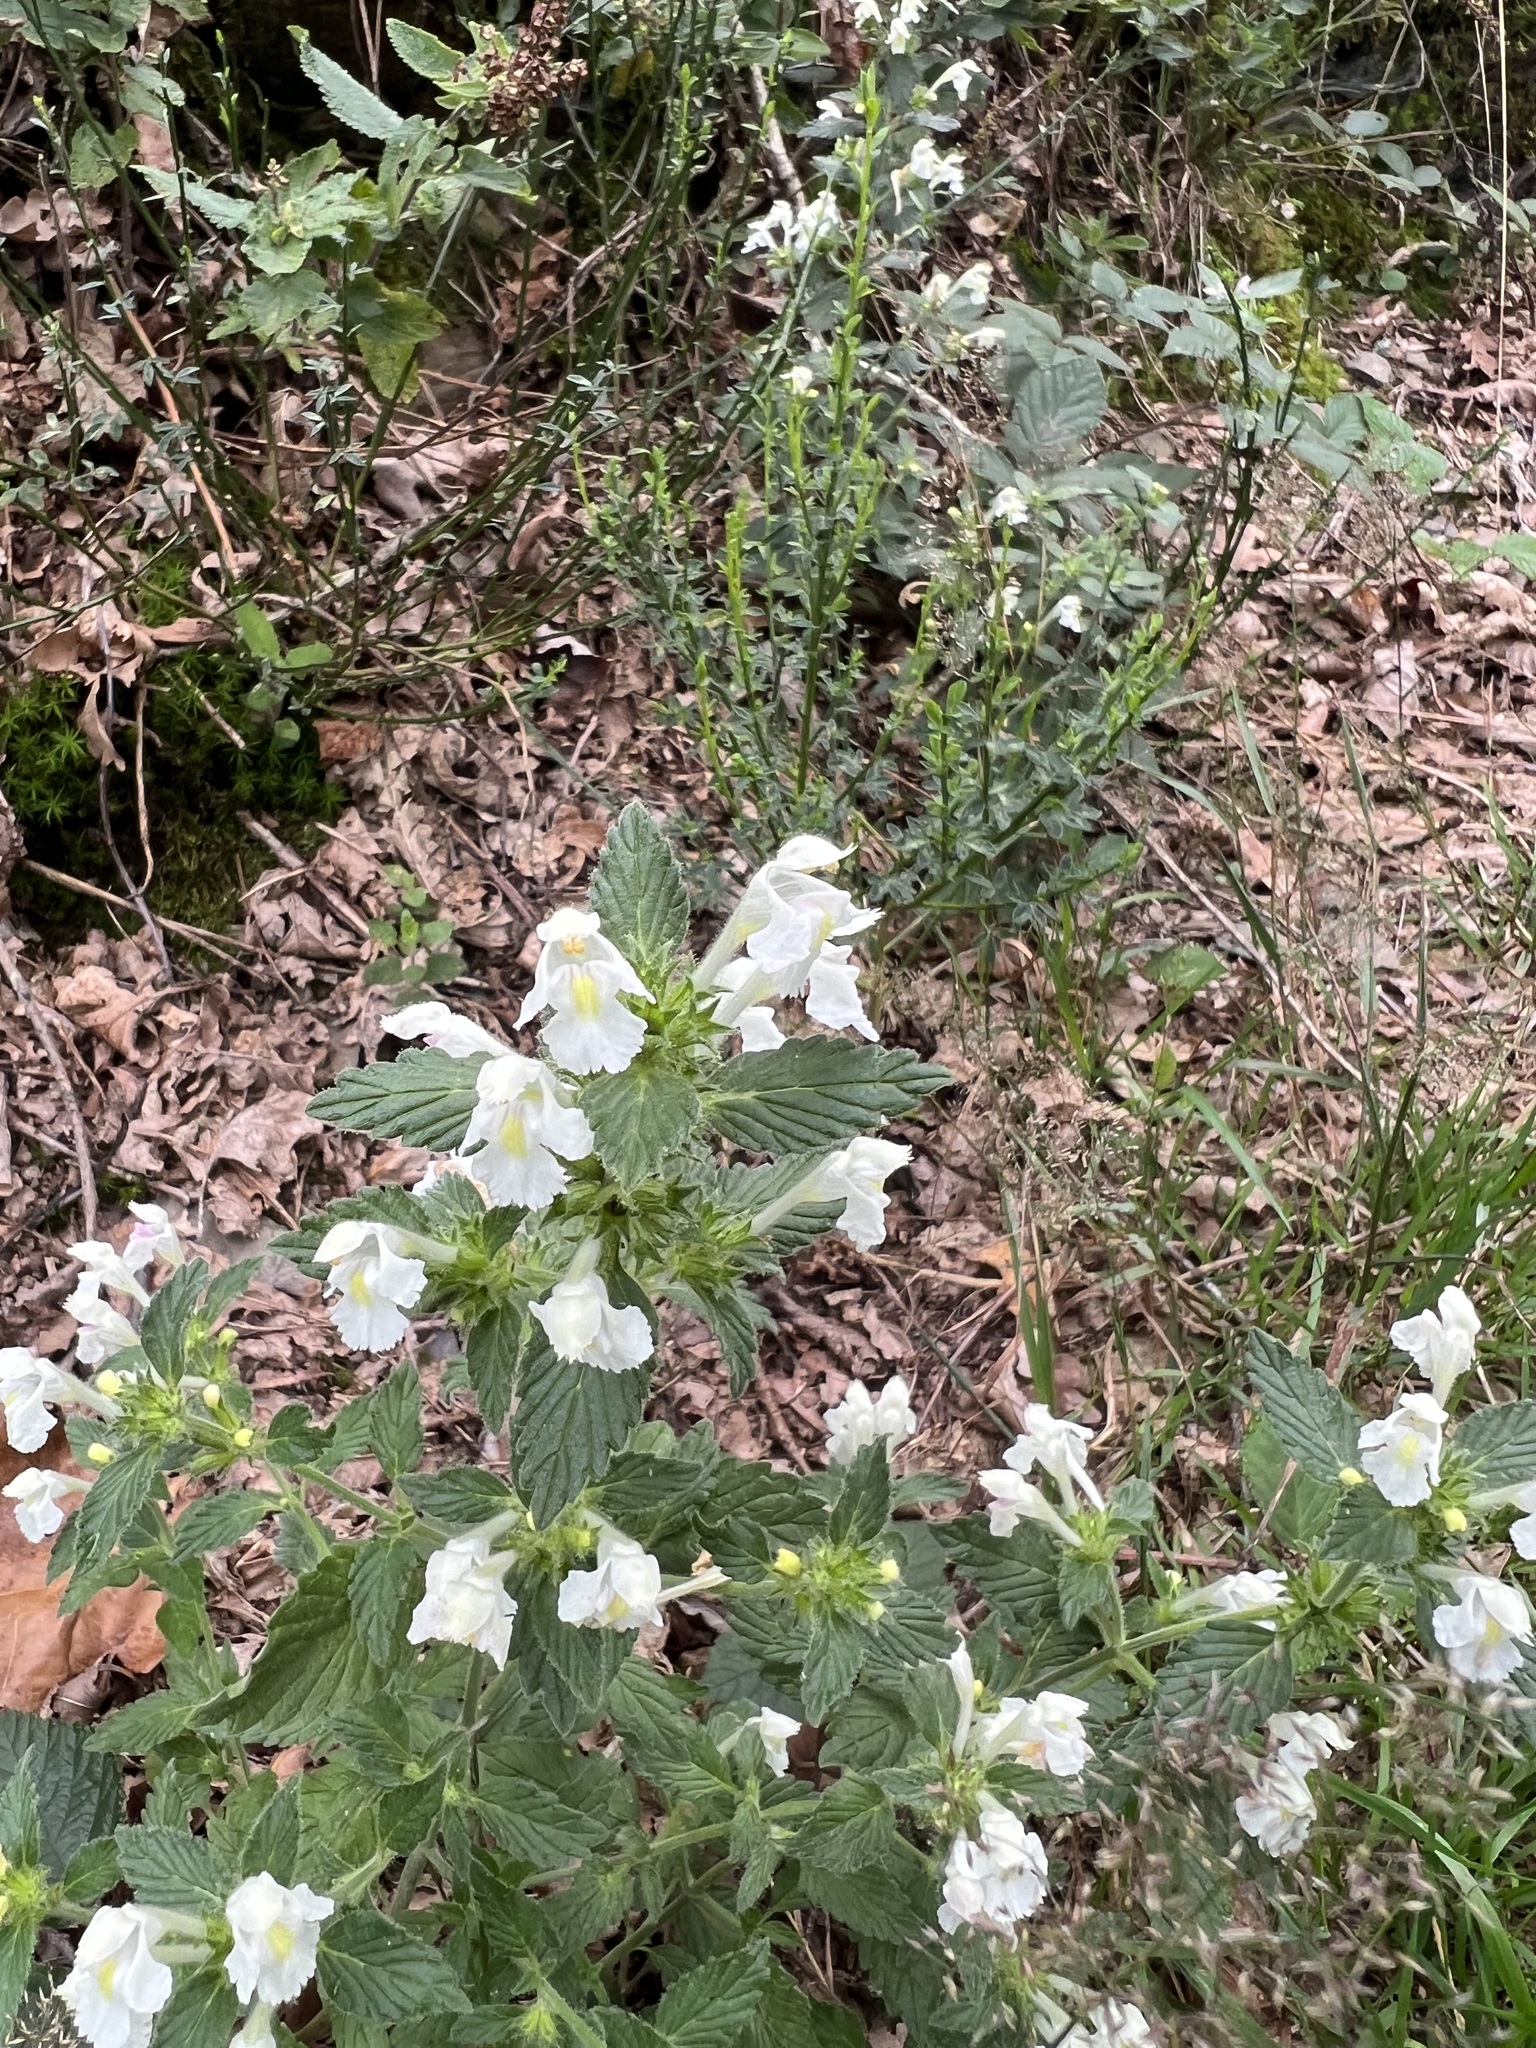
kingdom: Plantae
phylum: Tracheophyta
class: Magnoliopsida
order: Lamiales
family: Lamiaceae
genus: Galeopsis
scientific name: Galeopsis segetum
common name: Downy hemp-nettle
